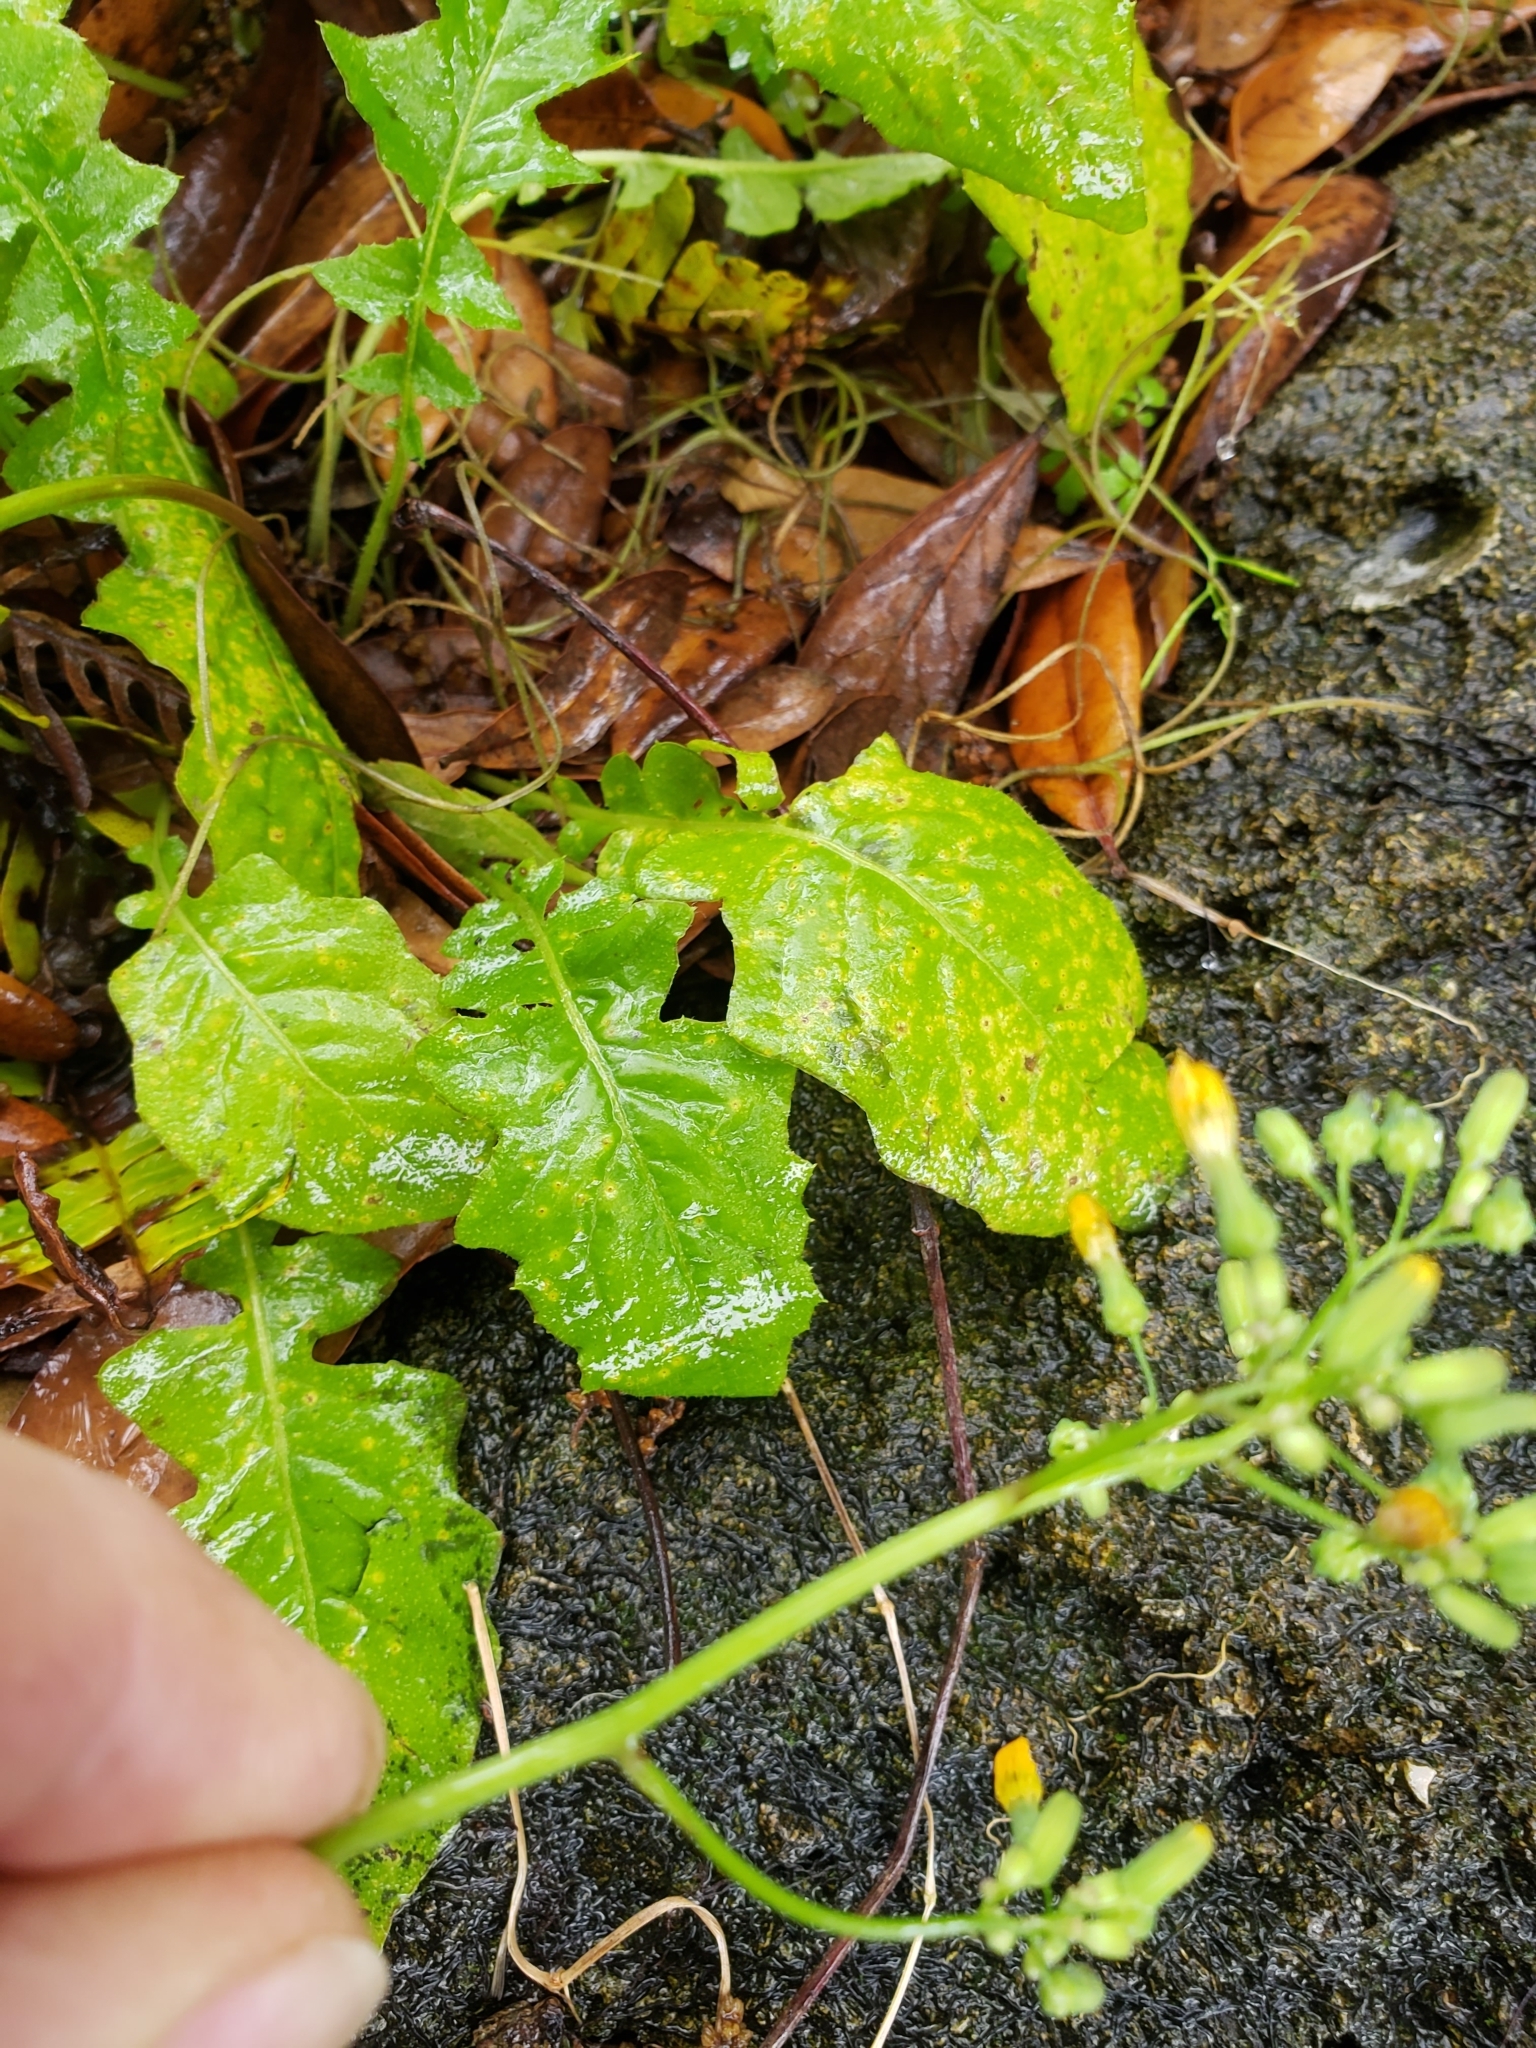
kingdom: Plantae
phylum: Tracheophyta
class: Magnoliopsida
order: Asterales
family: Asteraceae
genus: Youngia
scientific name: Youngia japonica
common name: Oriental false hawksbeard
